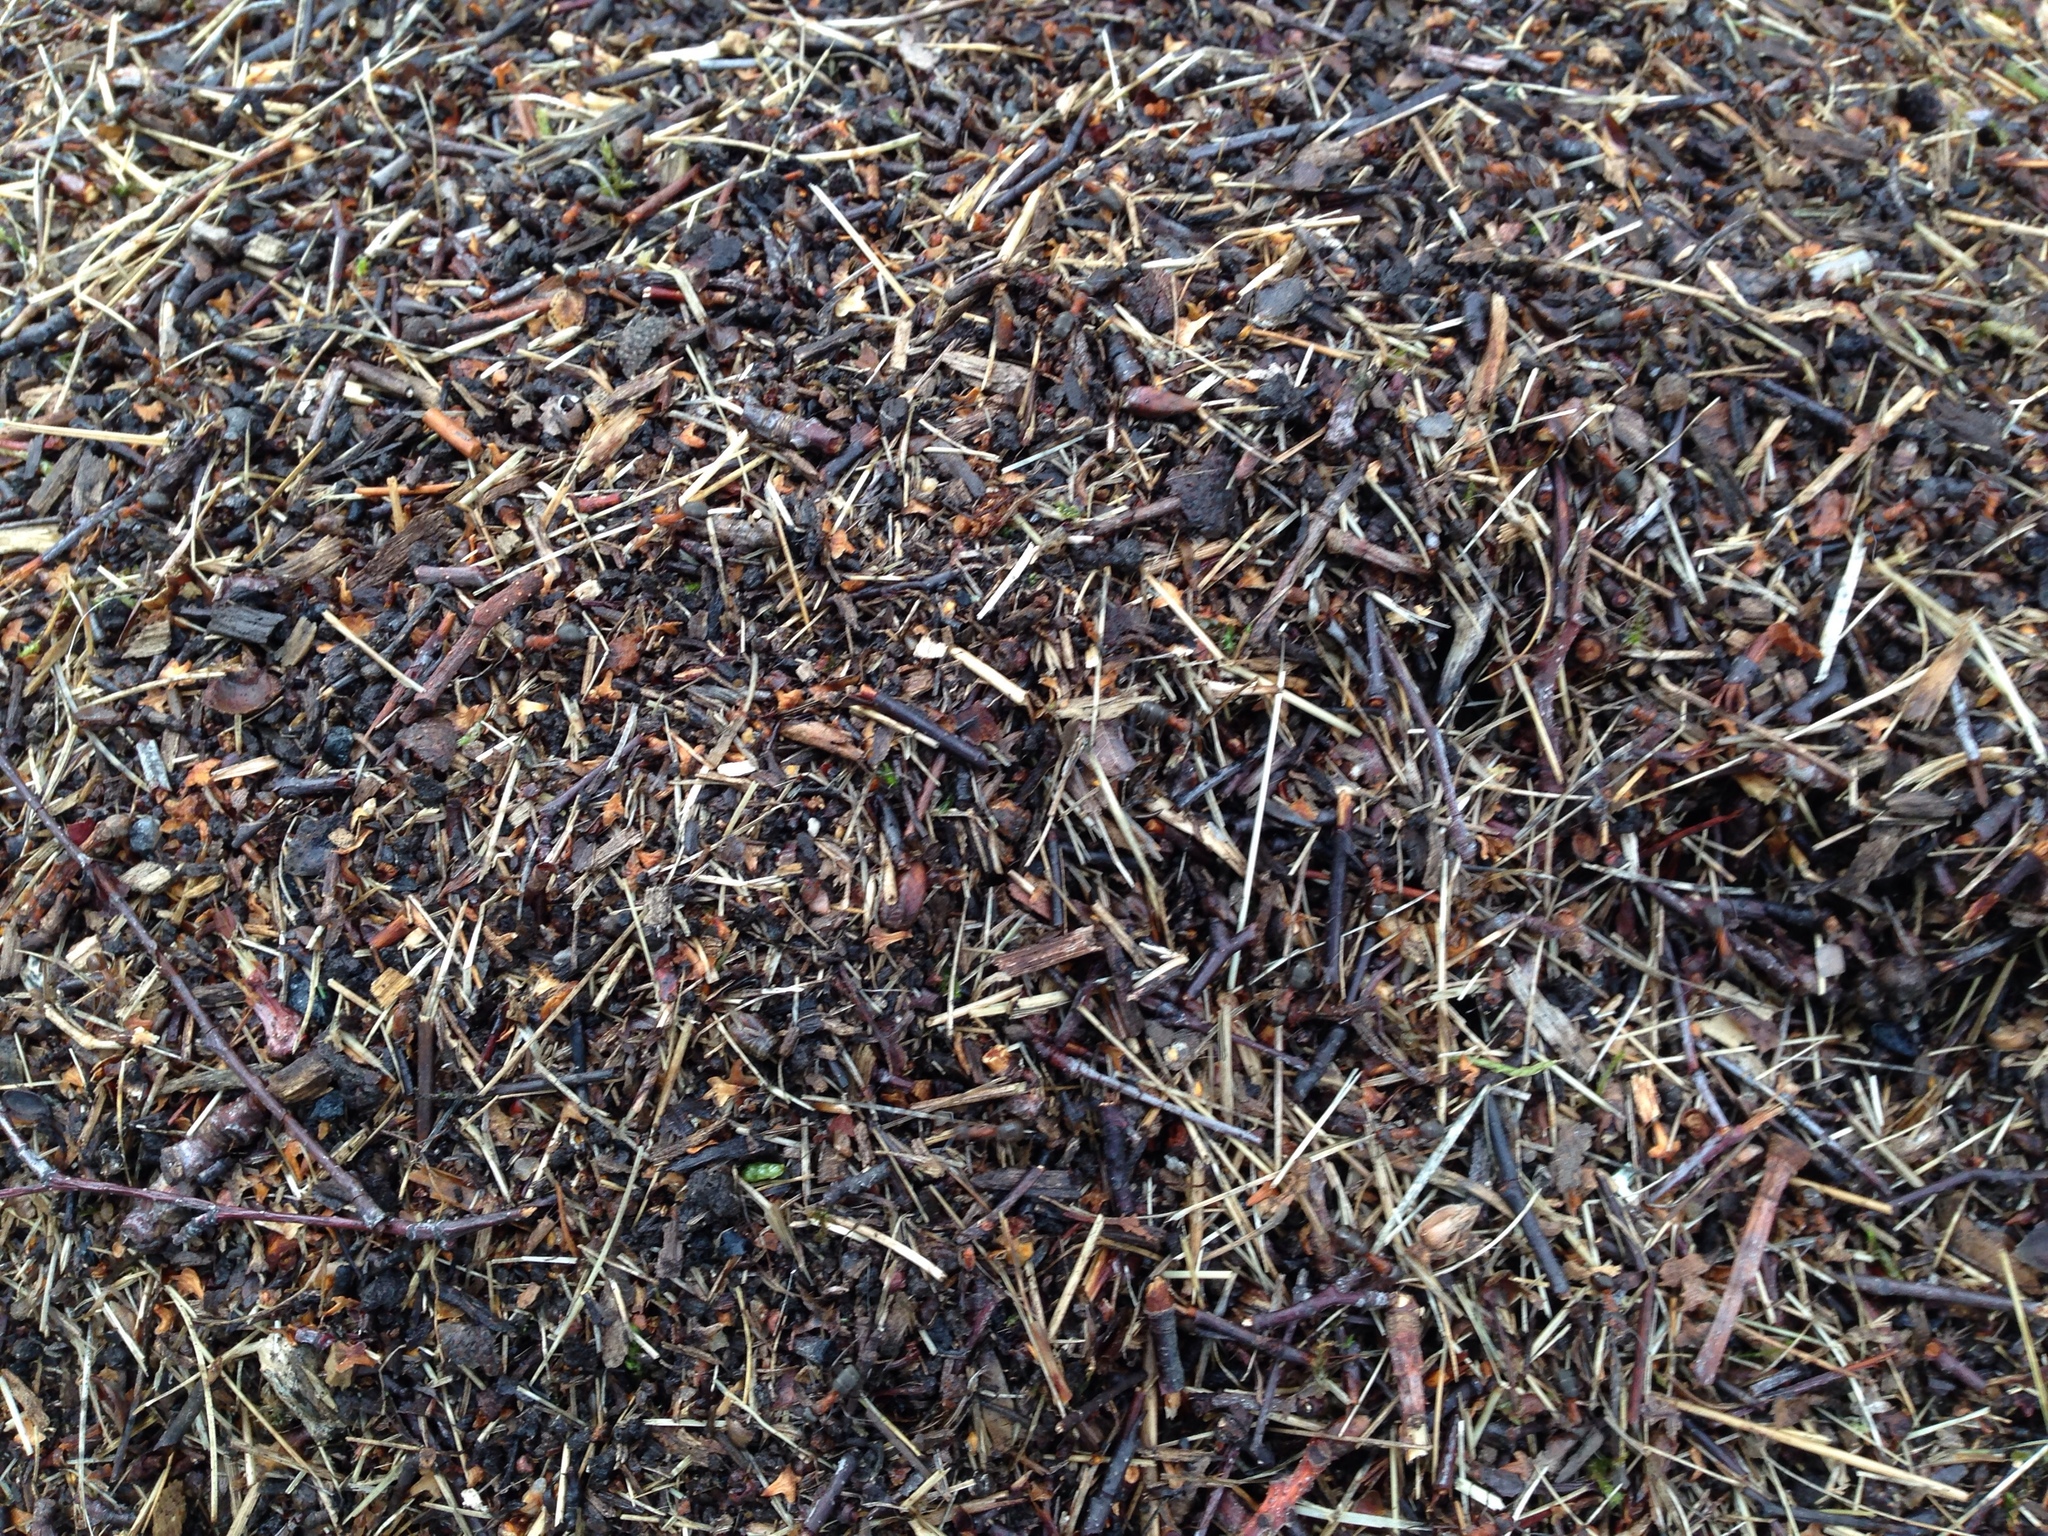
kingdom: Animalia
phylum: Arthropoda
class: Insecta
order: Hymenoptera
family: Formicidae
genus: Formica
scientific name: Formica rufa
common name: Red wood ant
